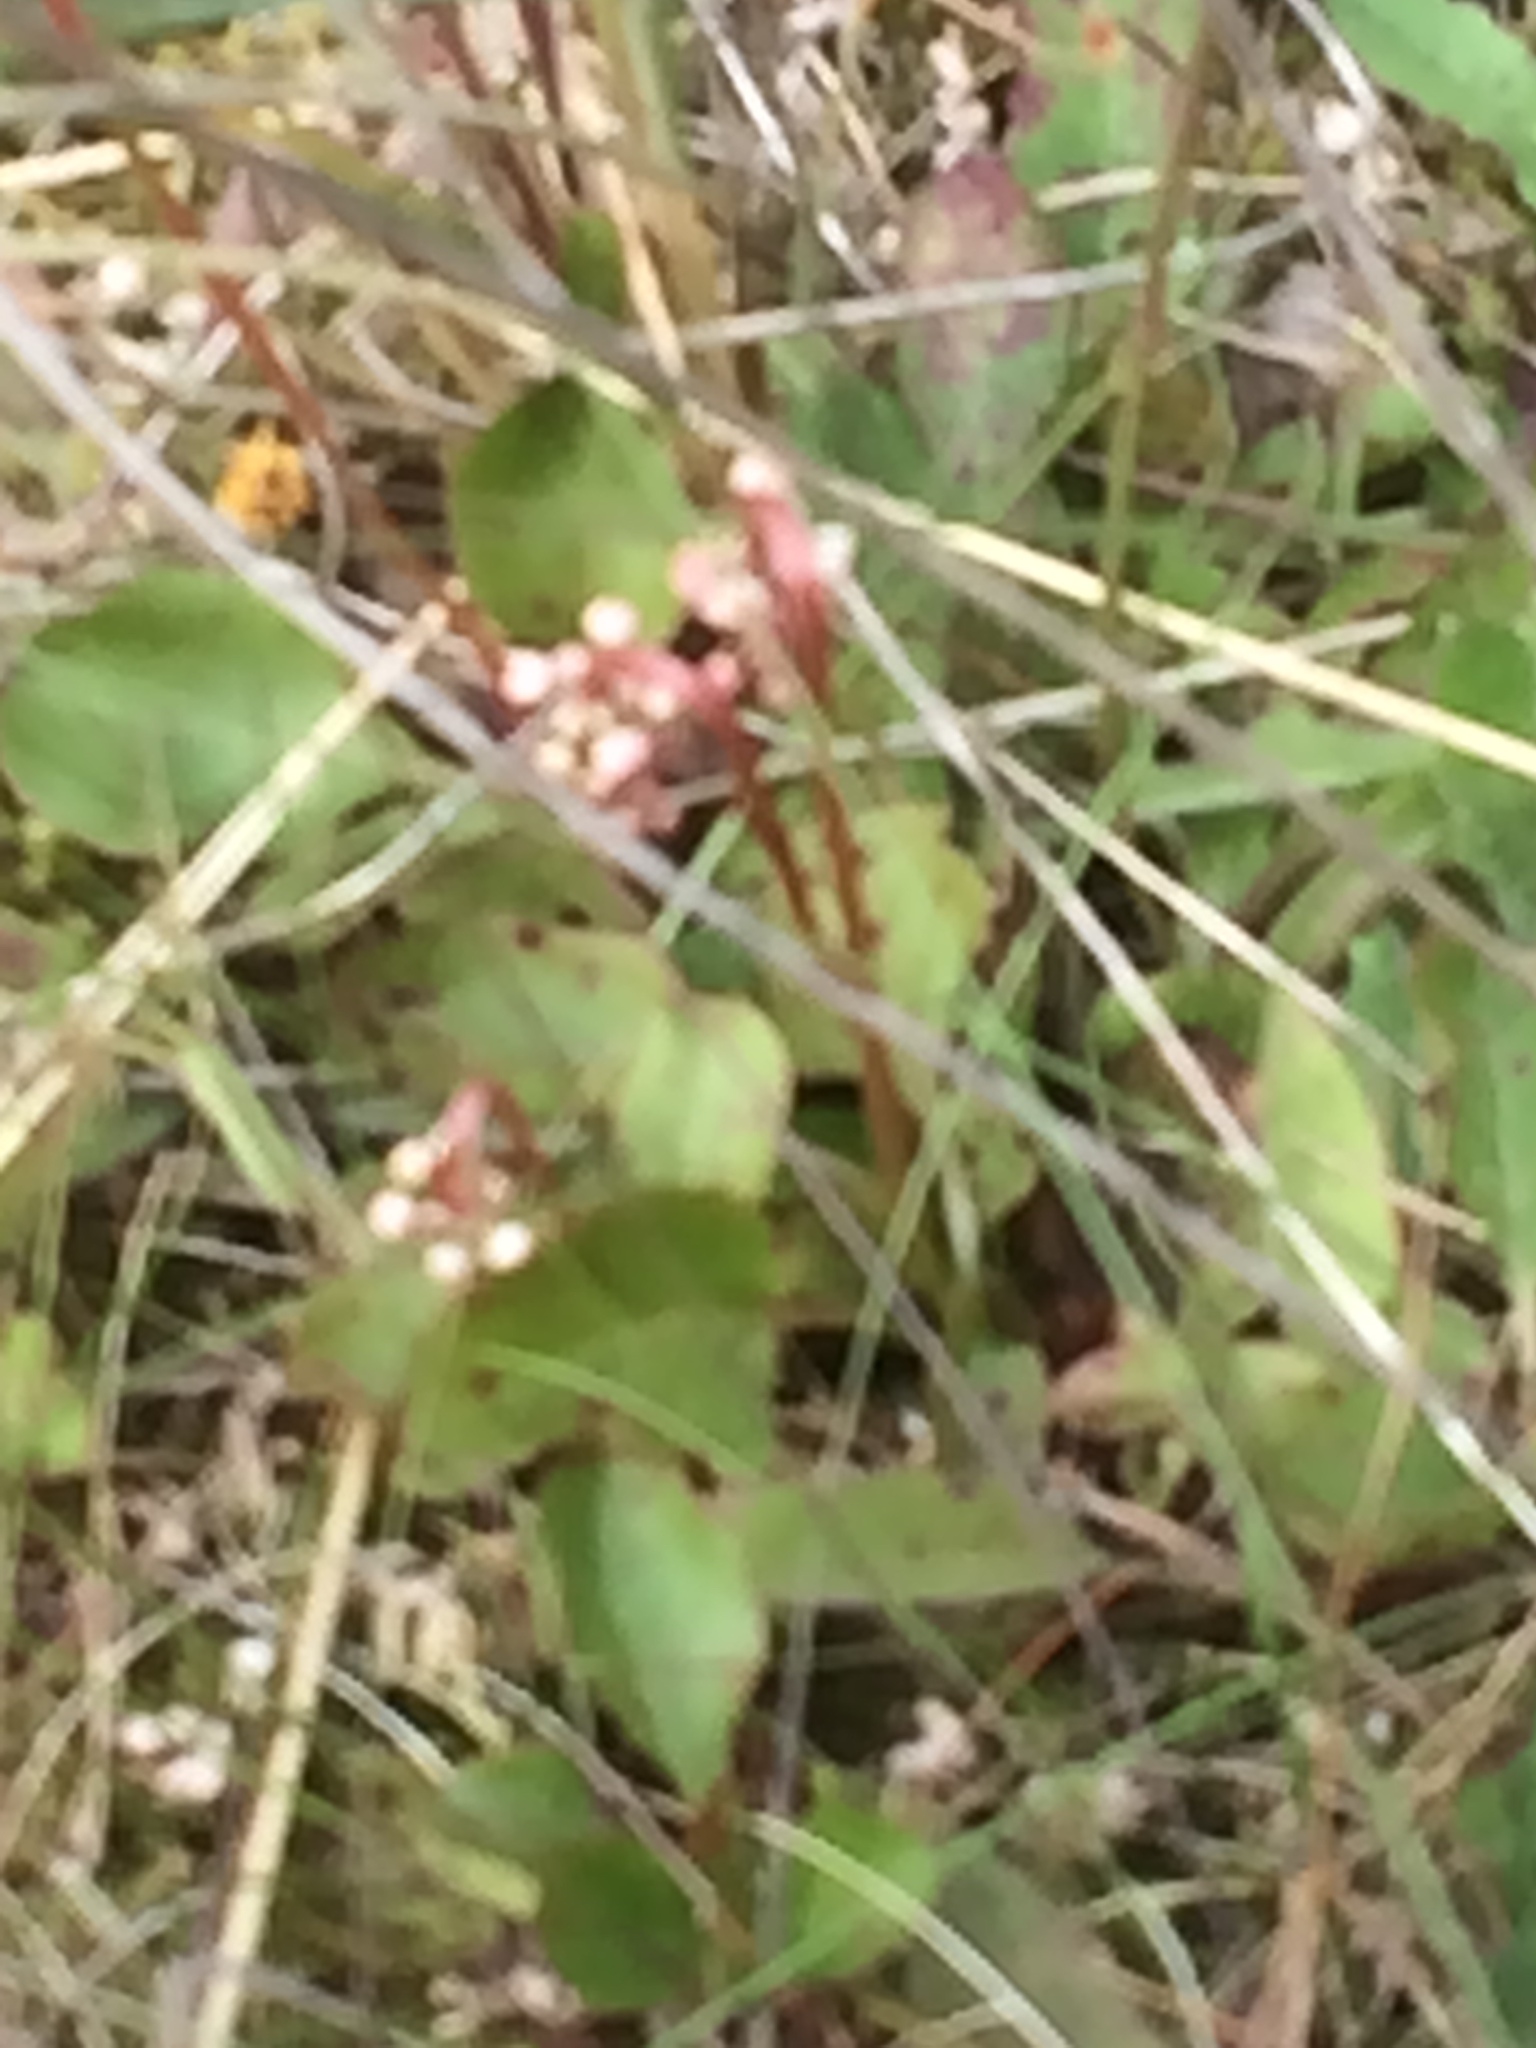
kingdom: Plantae
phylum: Tracheophyta
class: Magnoliopsida
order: Ericales
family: Ericaceae
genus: Pyrola
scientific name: Pyrola minor
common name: Common wintergreen
